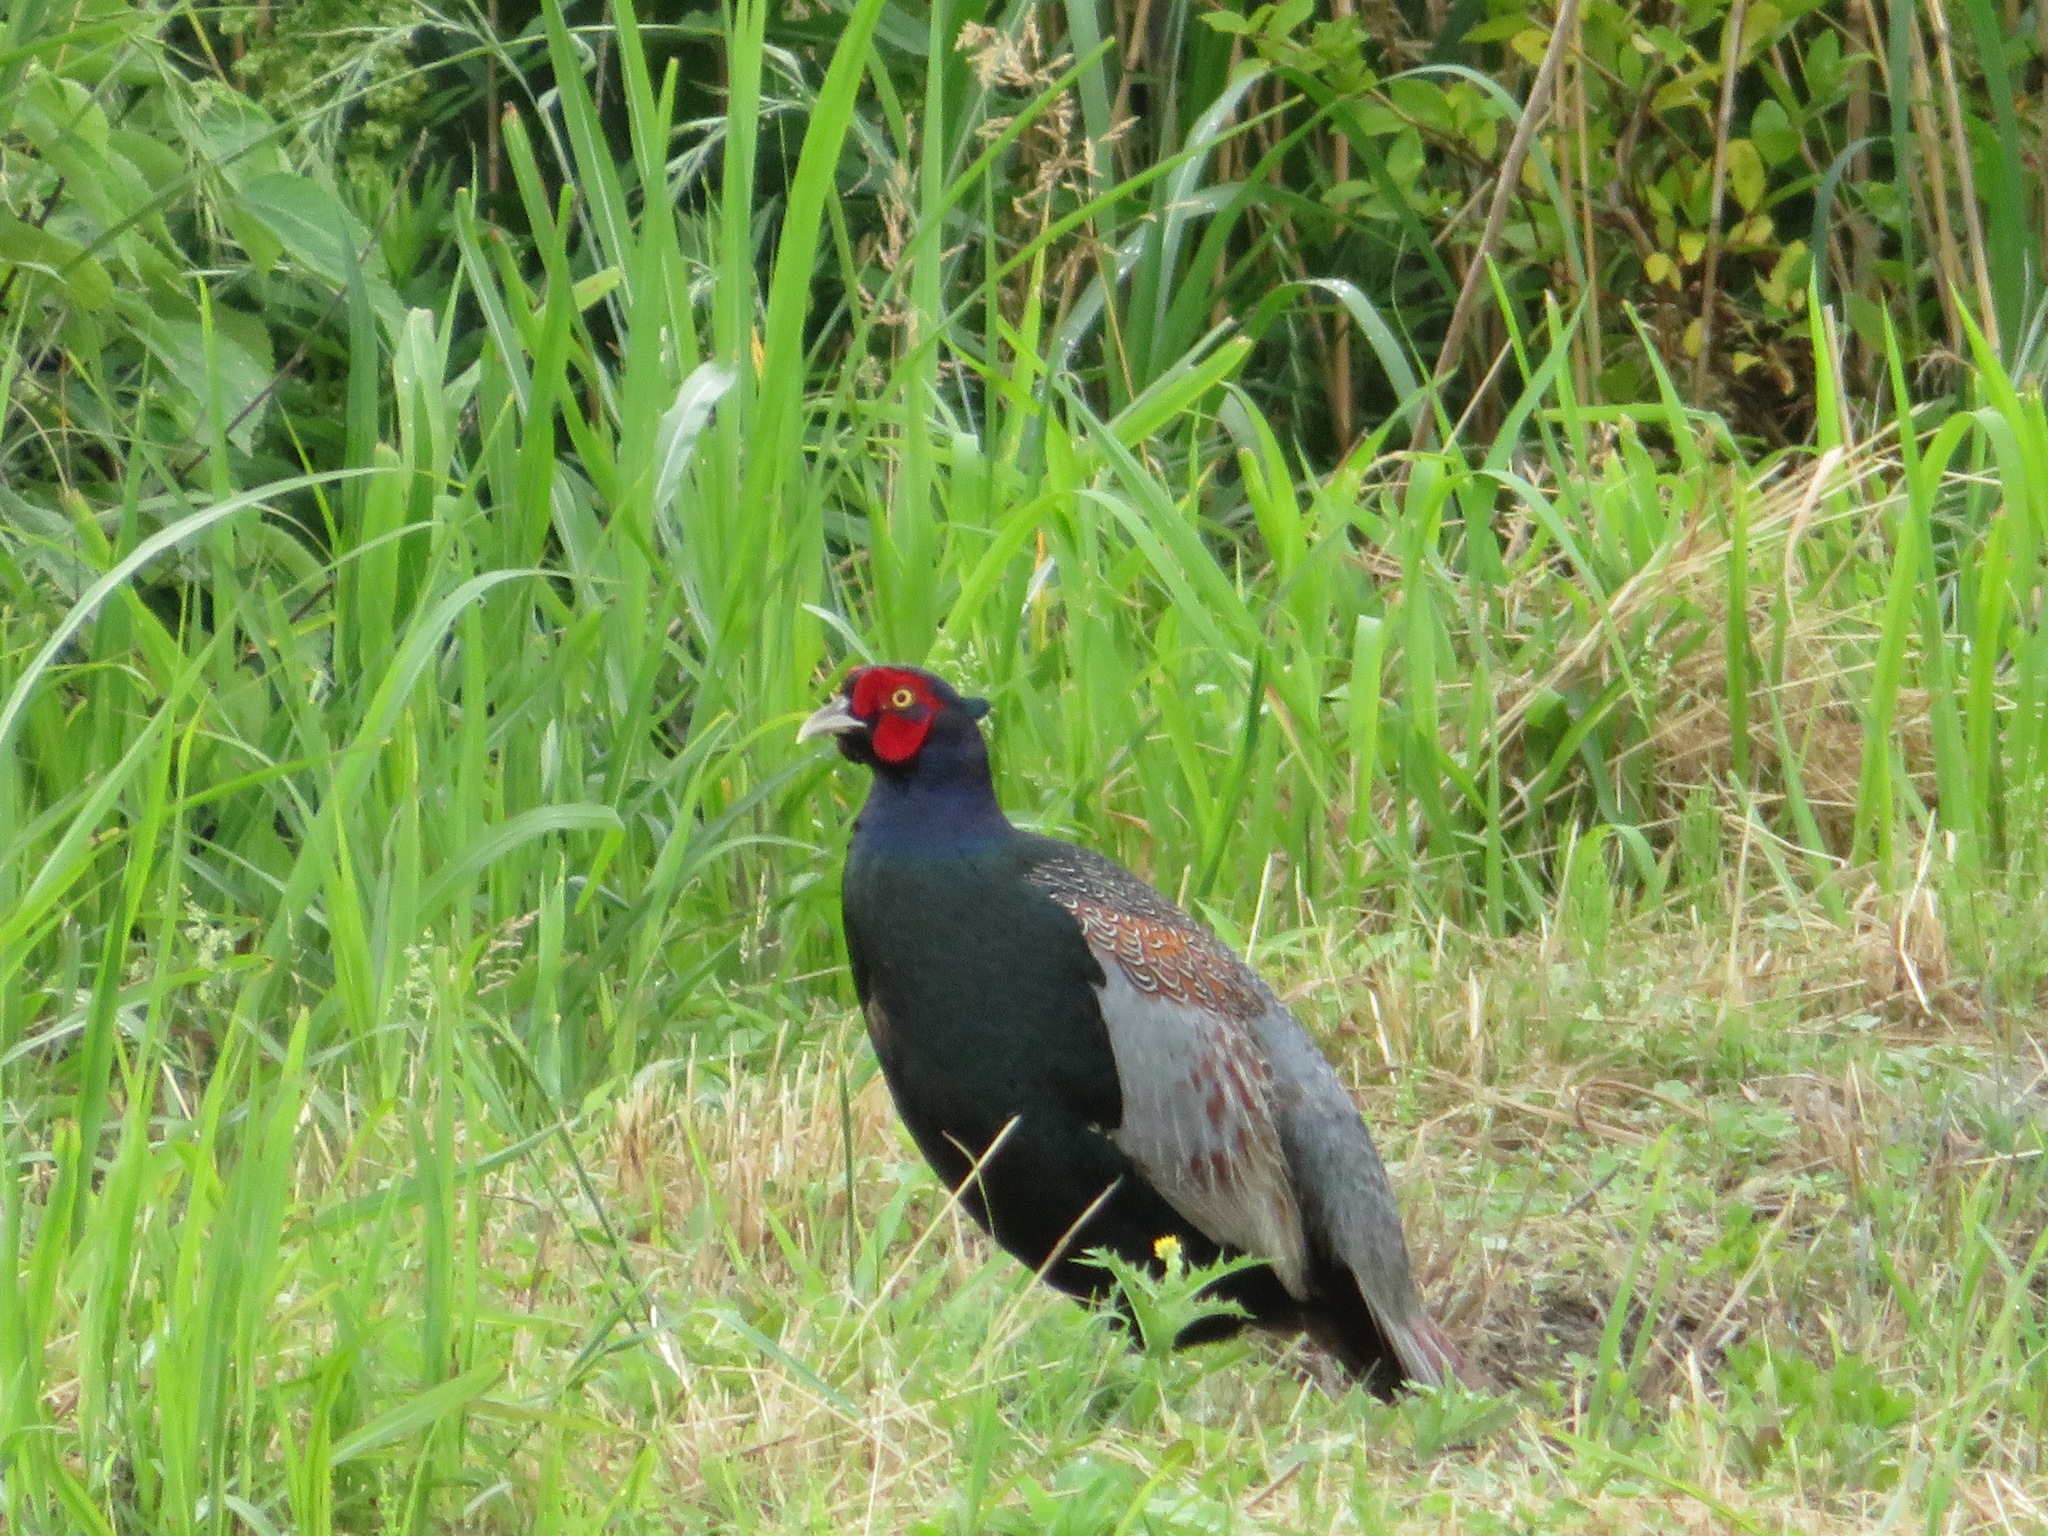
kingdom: Animalia
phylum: Chordata
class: Aves
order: Galliformes
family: Phasianidae
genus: Phasianus
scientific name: Phasianus versicolor
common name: Green pheasant
